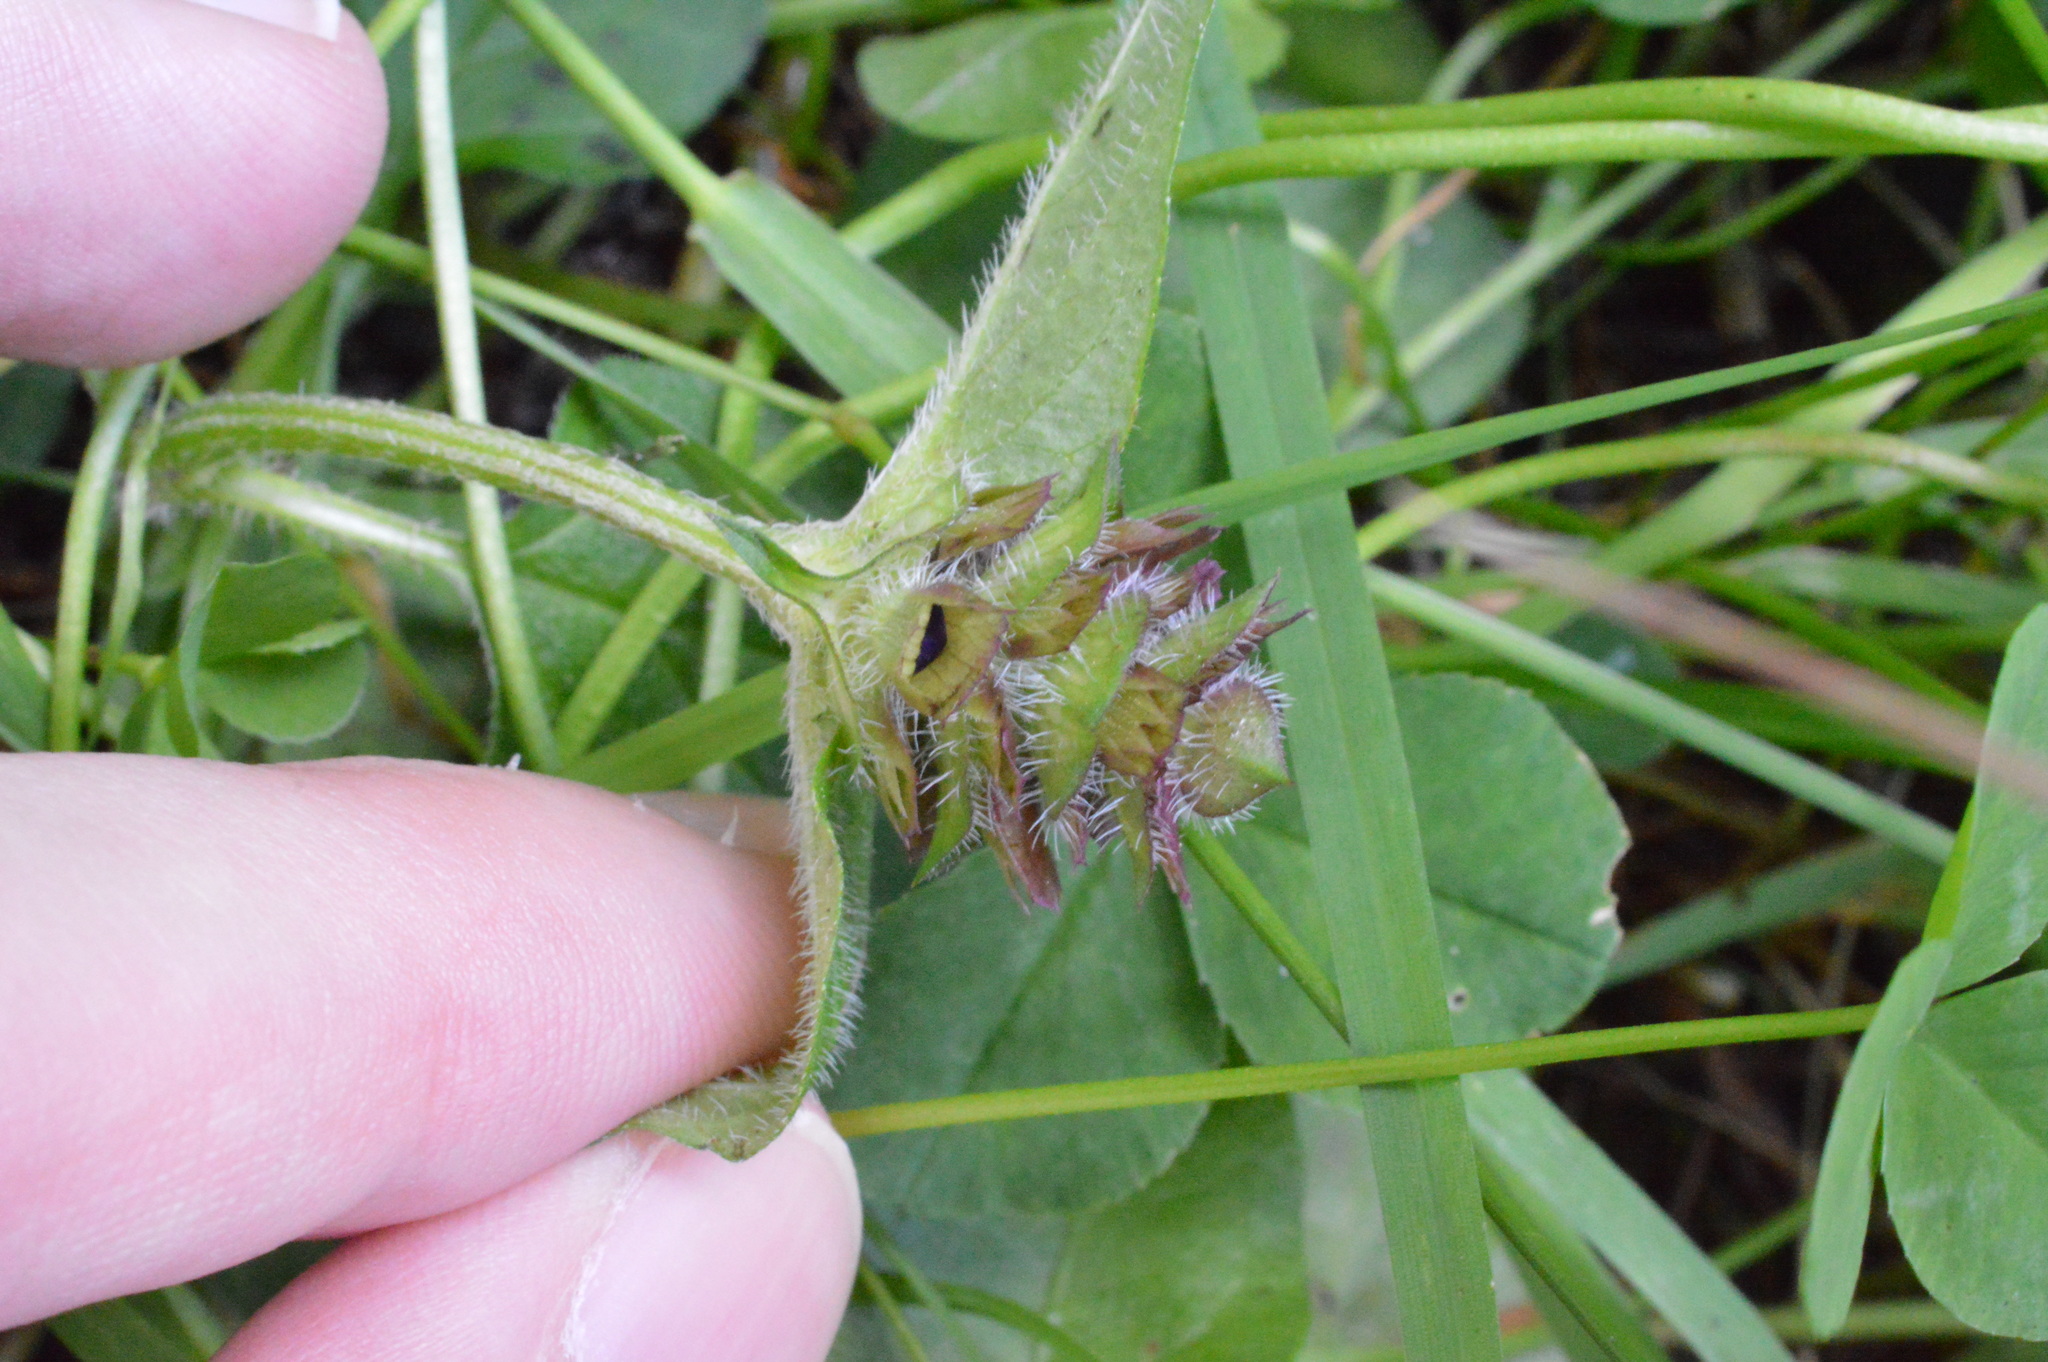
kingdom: Plantae
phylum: Tracheophyta
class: Magnoliopsida
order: Lamiales
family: Lamiaceae
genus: Prunella
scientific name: Prunella vulgaris
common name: Heal-all
